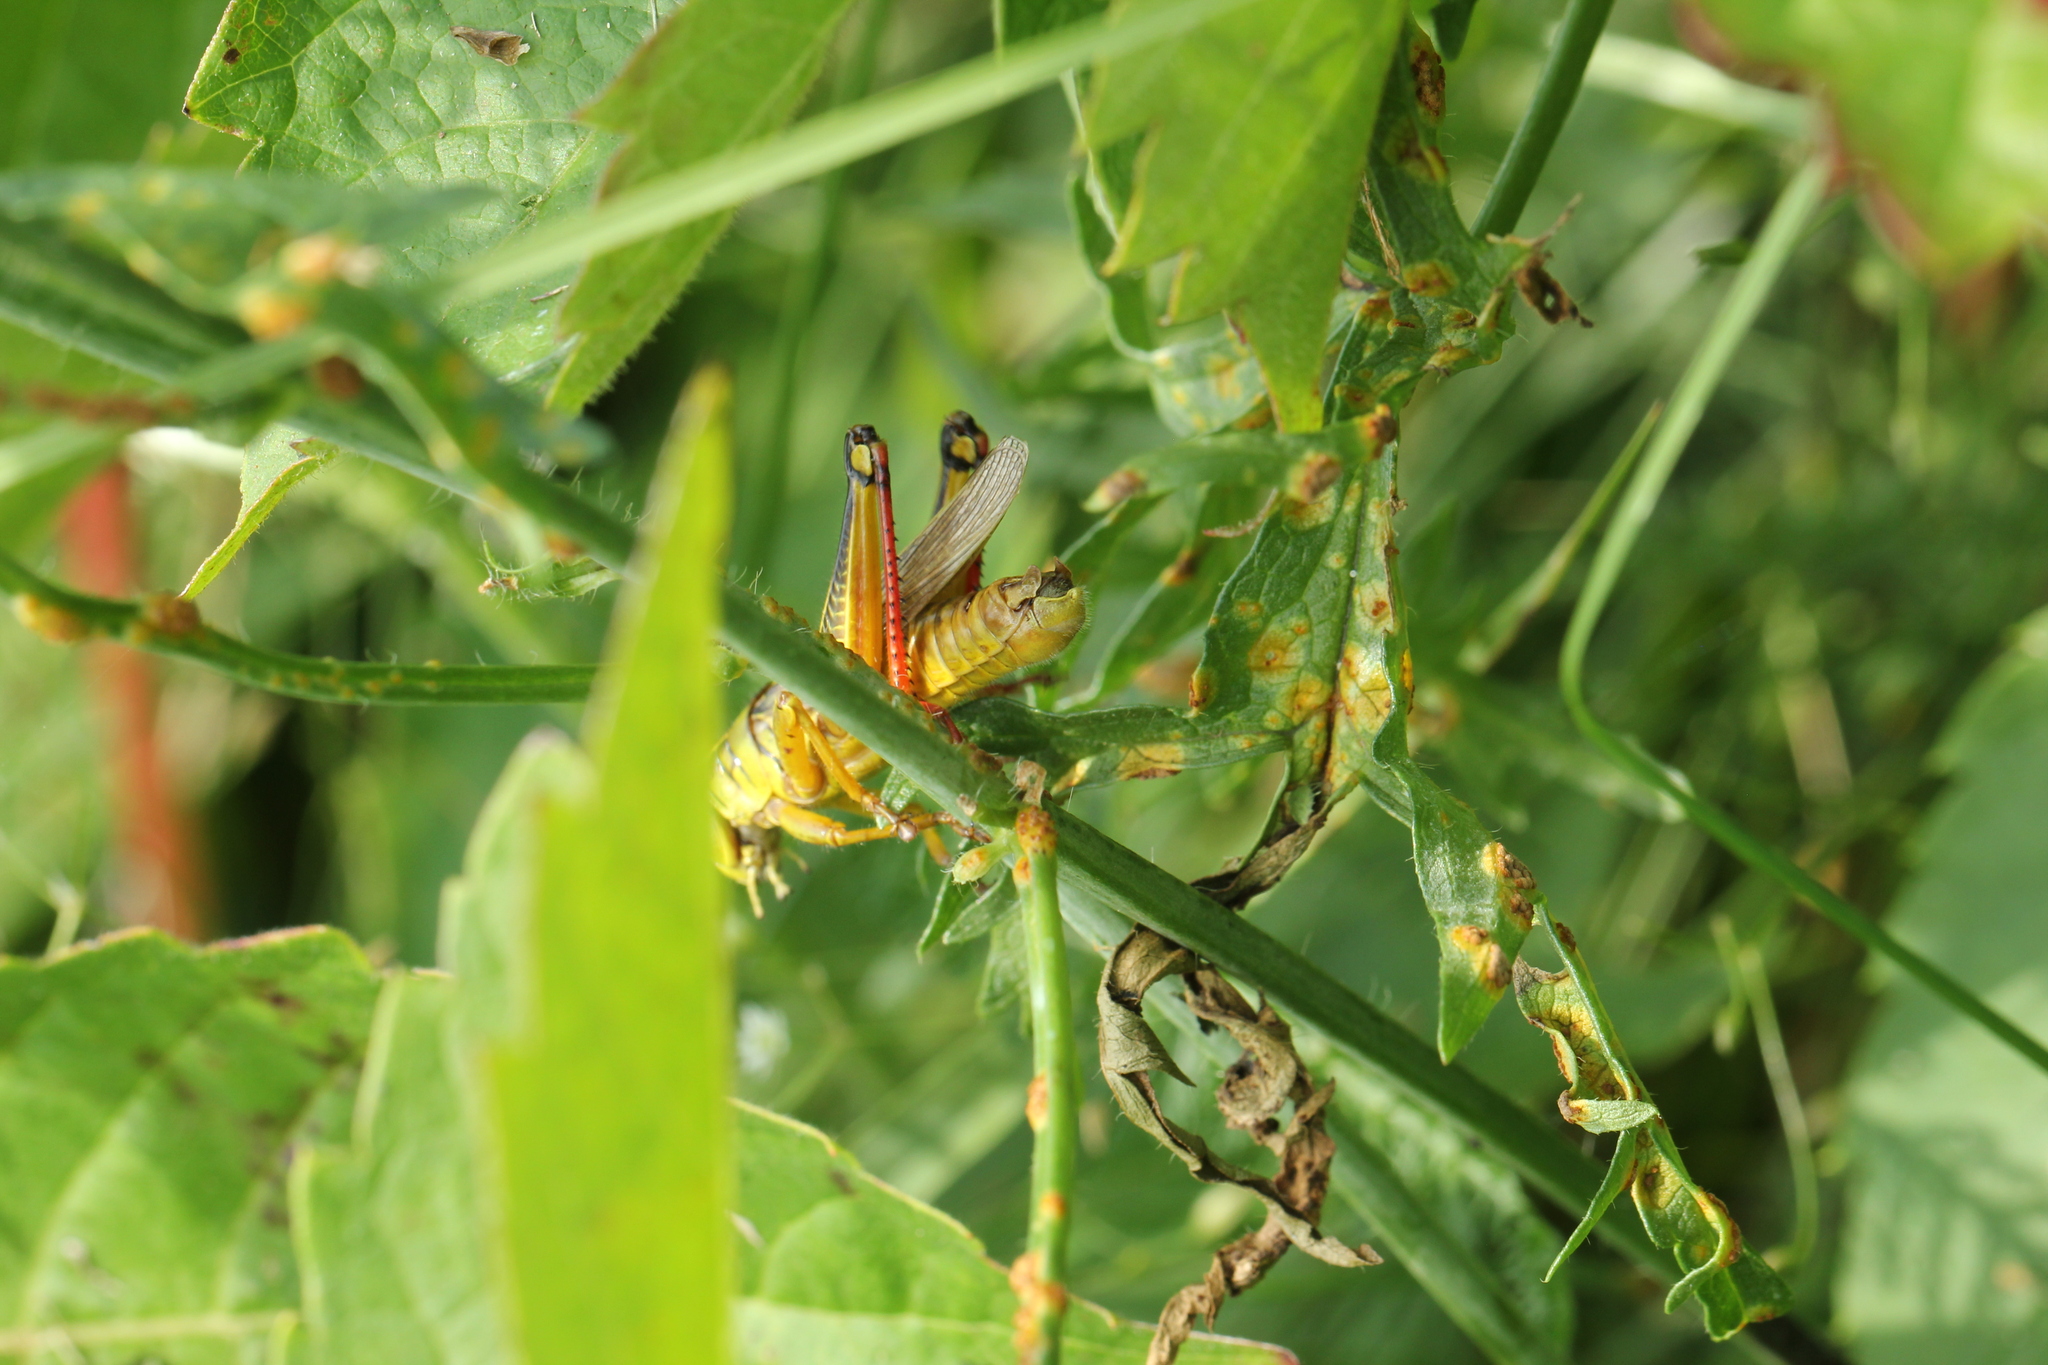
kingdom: Animalia
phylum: Arthropoda
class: Insecta
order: Orthoptera
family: Acrididae
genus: Melanoplus
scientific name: Melanoplus bivittatus
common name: Two-striped grasshopper
